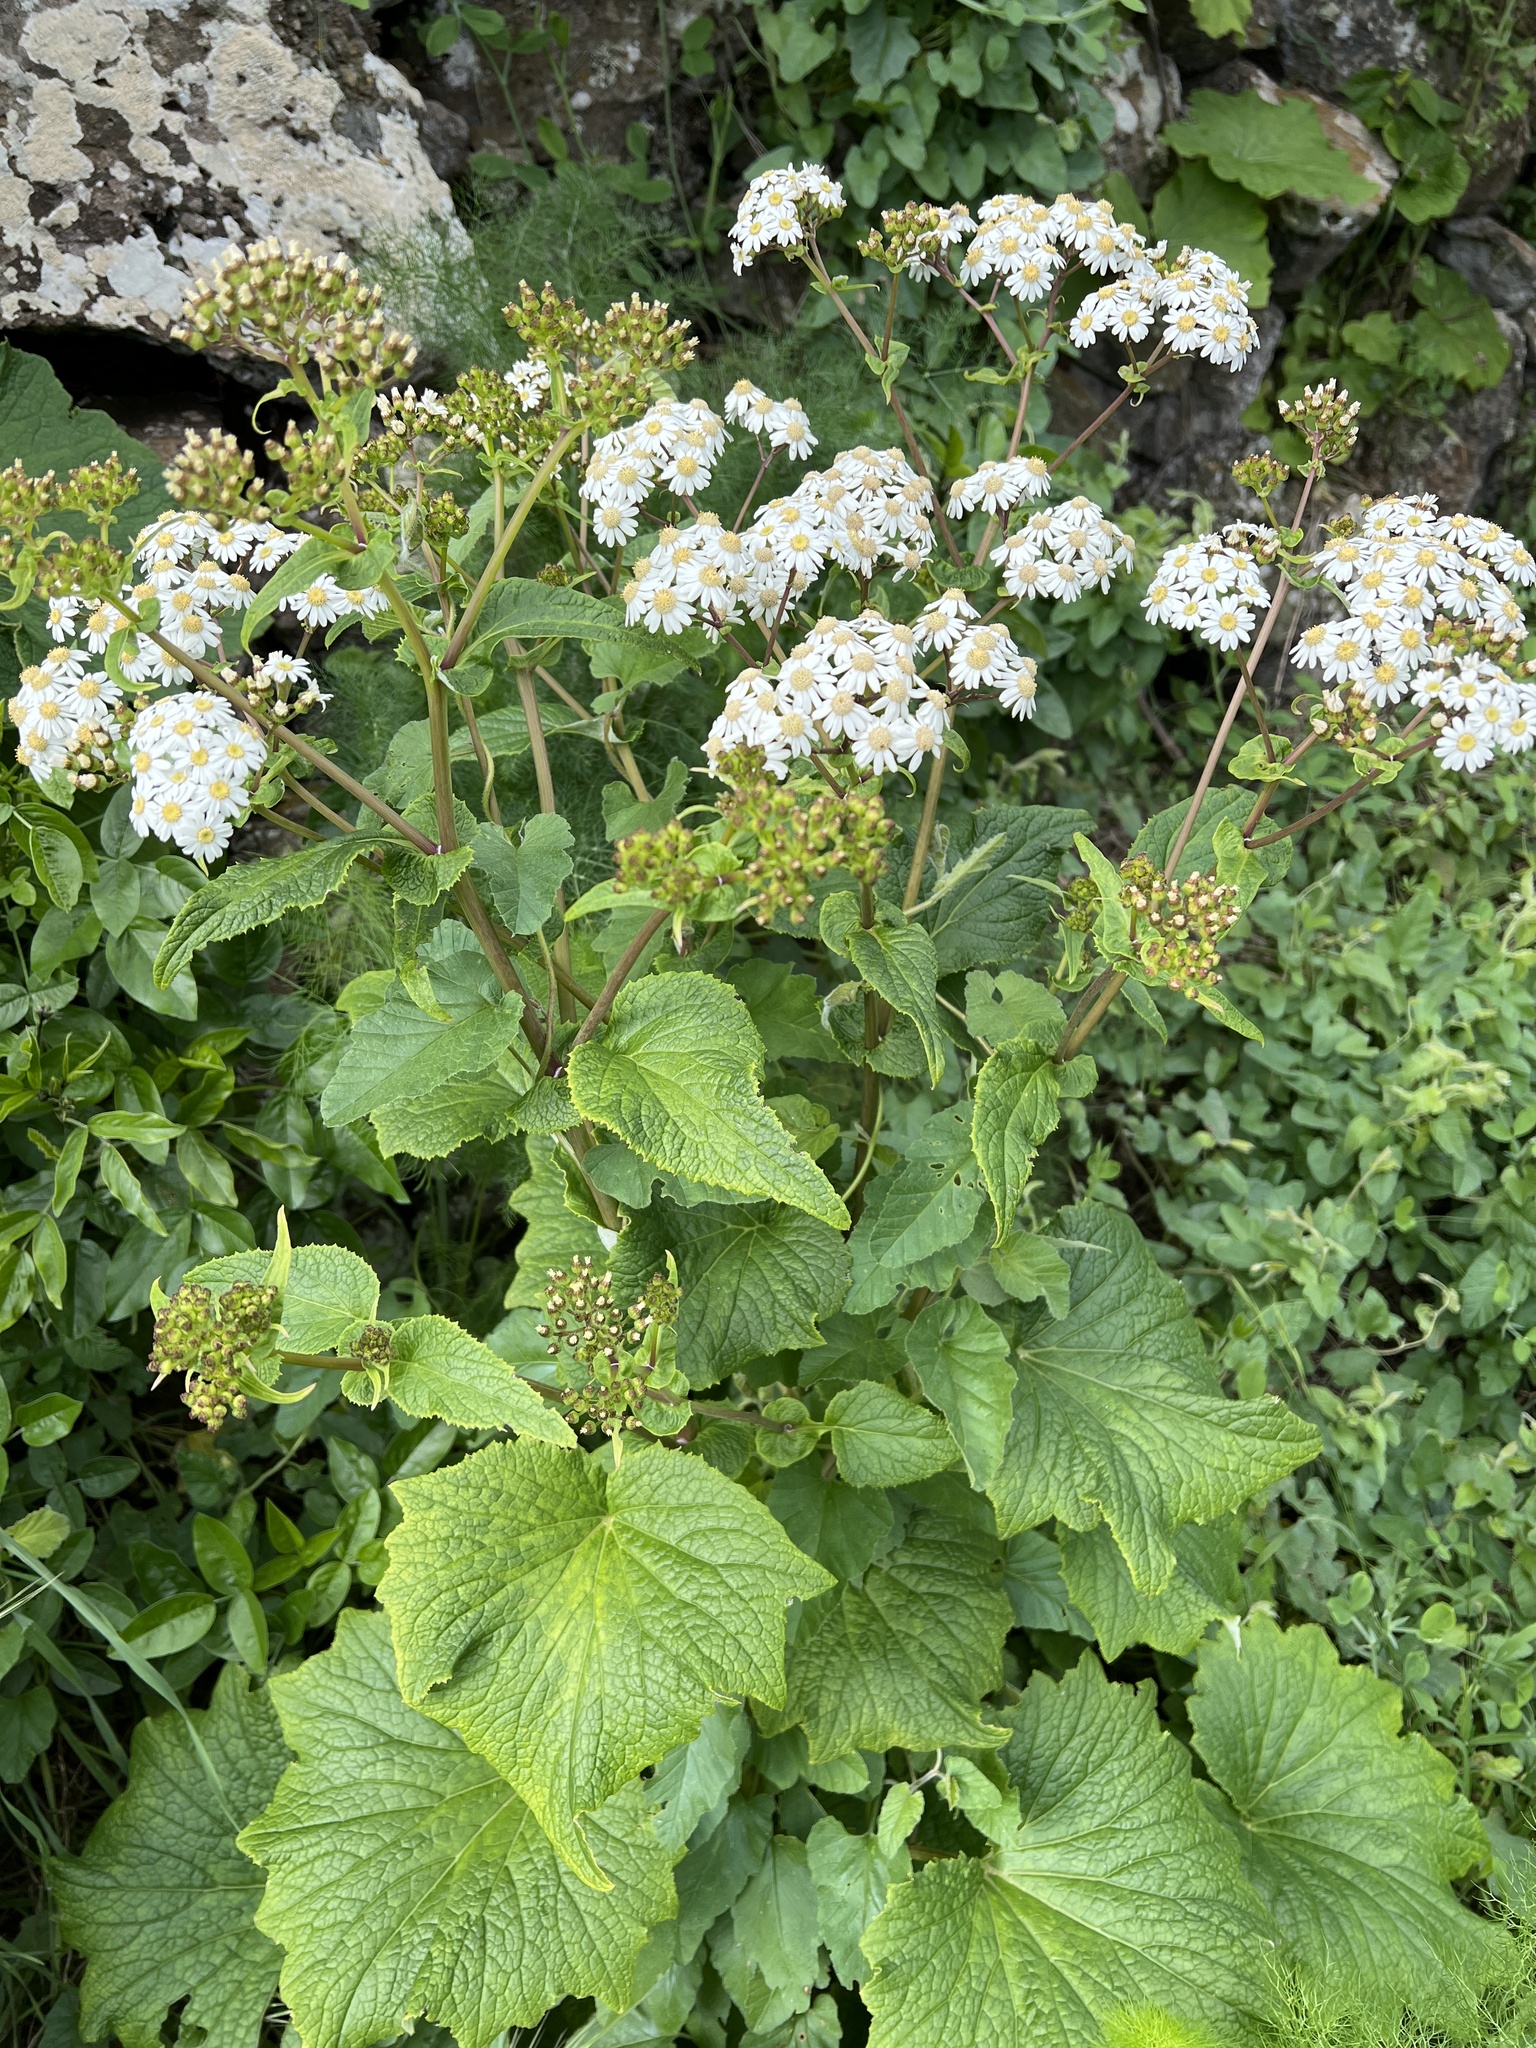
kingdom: Plantae
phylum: Tracheophyta
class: Magnoliopsida
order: Asterales
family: Asteraceae
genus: Pericallis
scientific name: Pericallis murrayi
